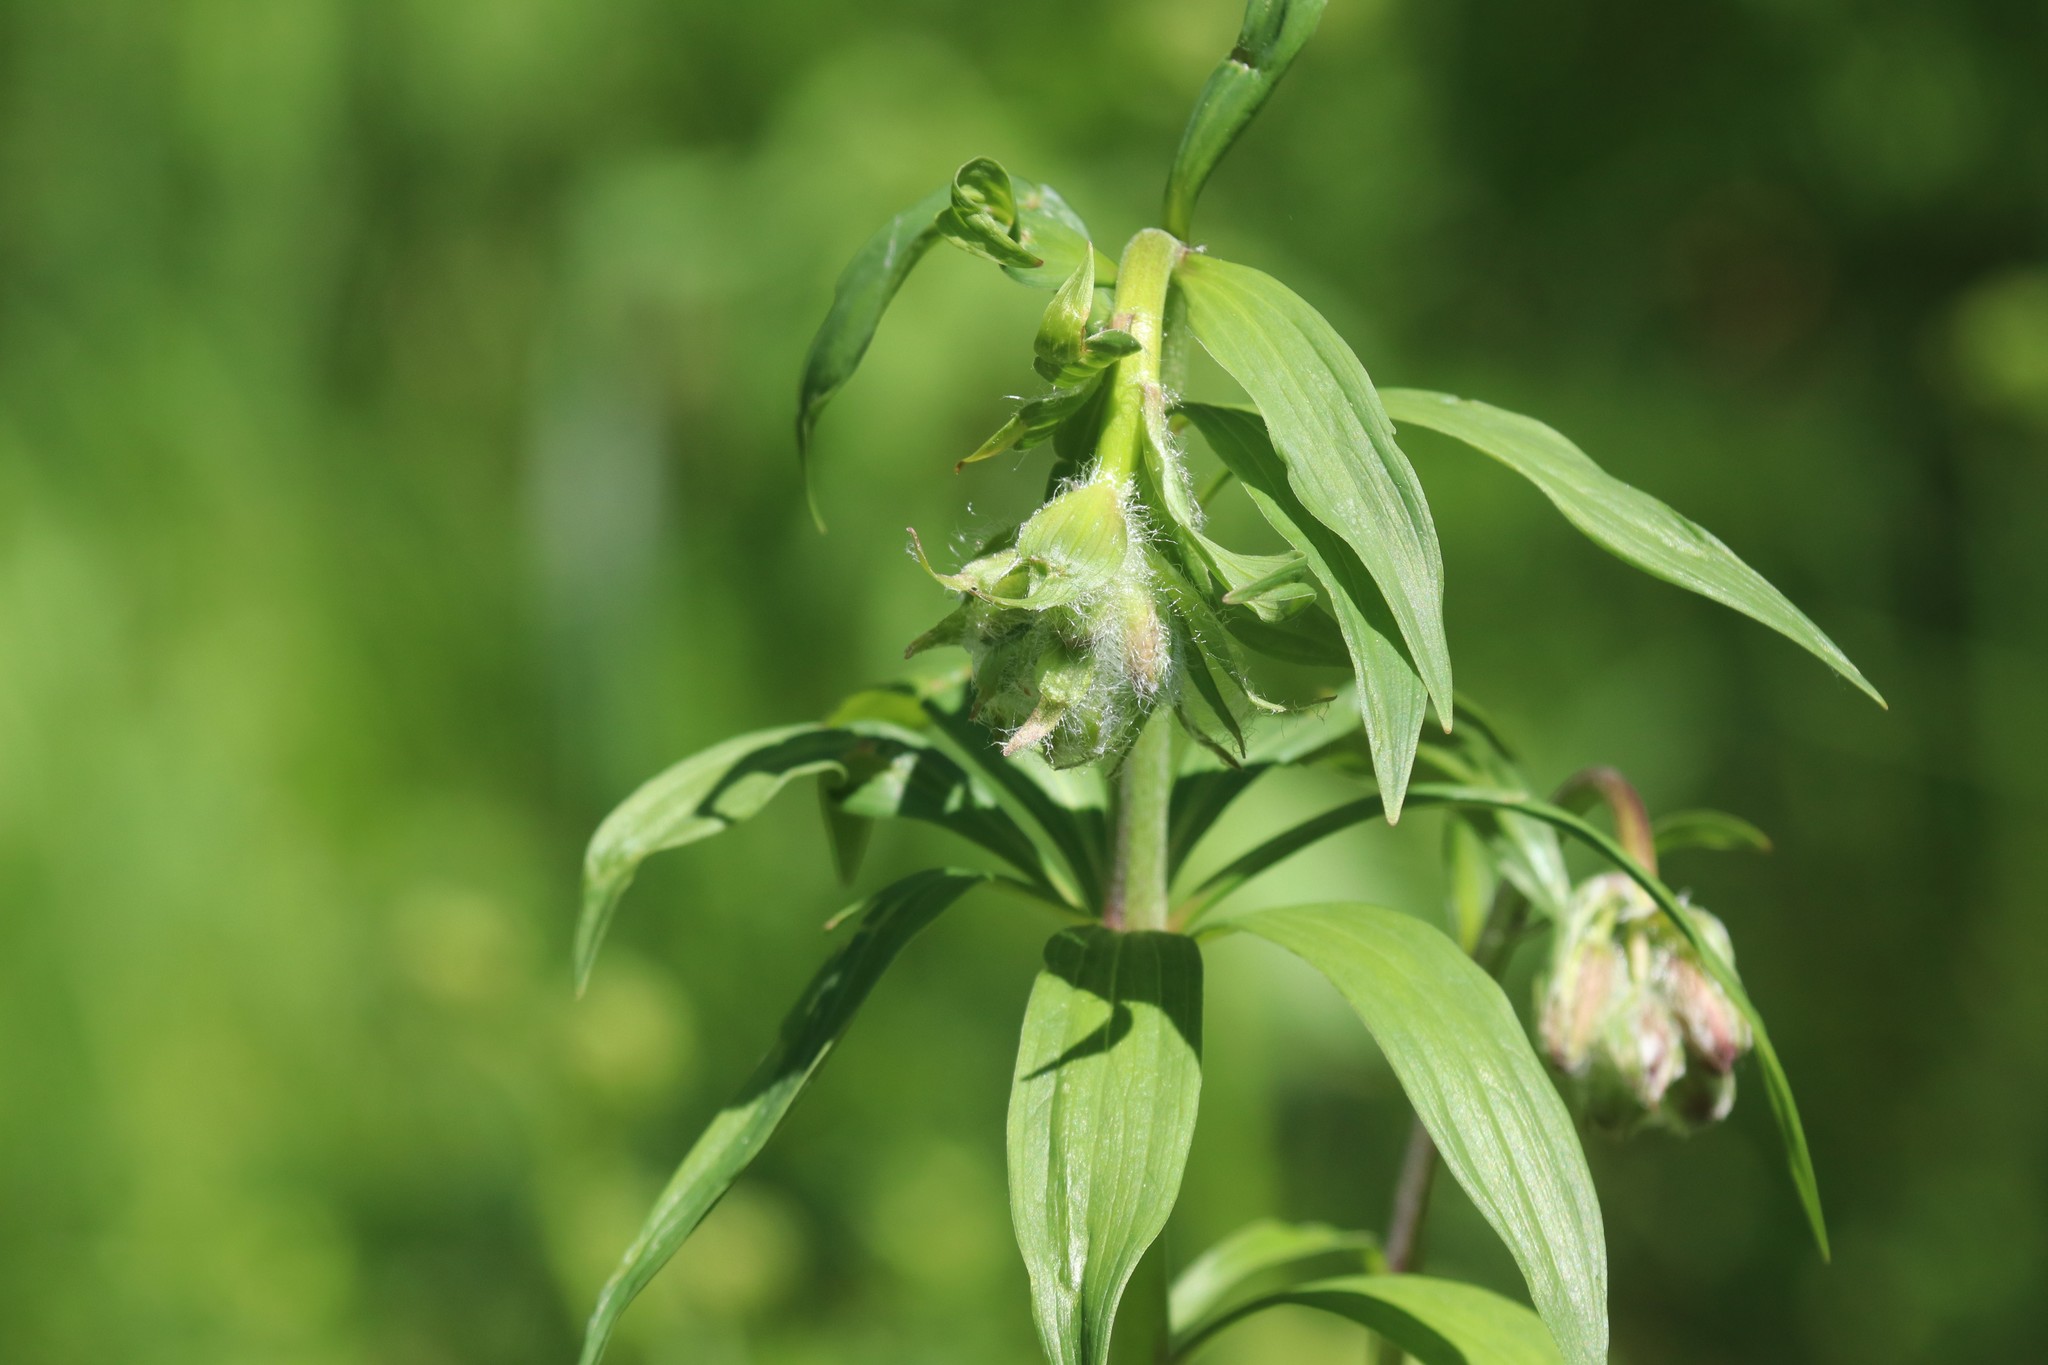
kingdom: Plantae
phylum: Tracheophyta
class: Liliopsida
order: Liliales
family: Liliaceae
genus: Lilium
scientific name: Lilium martagon
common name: Martagon lily
